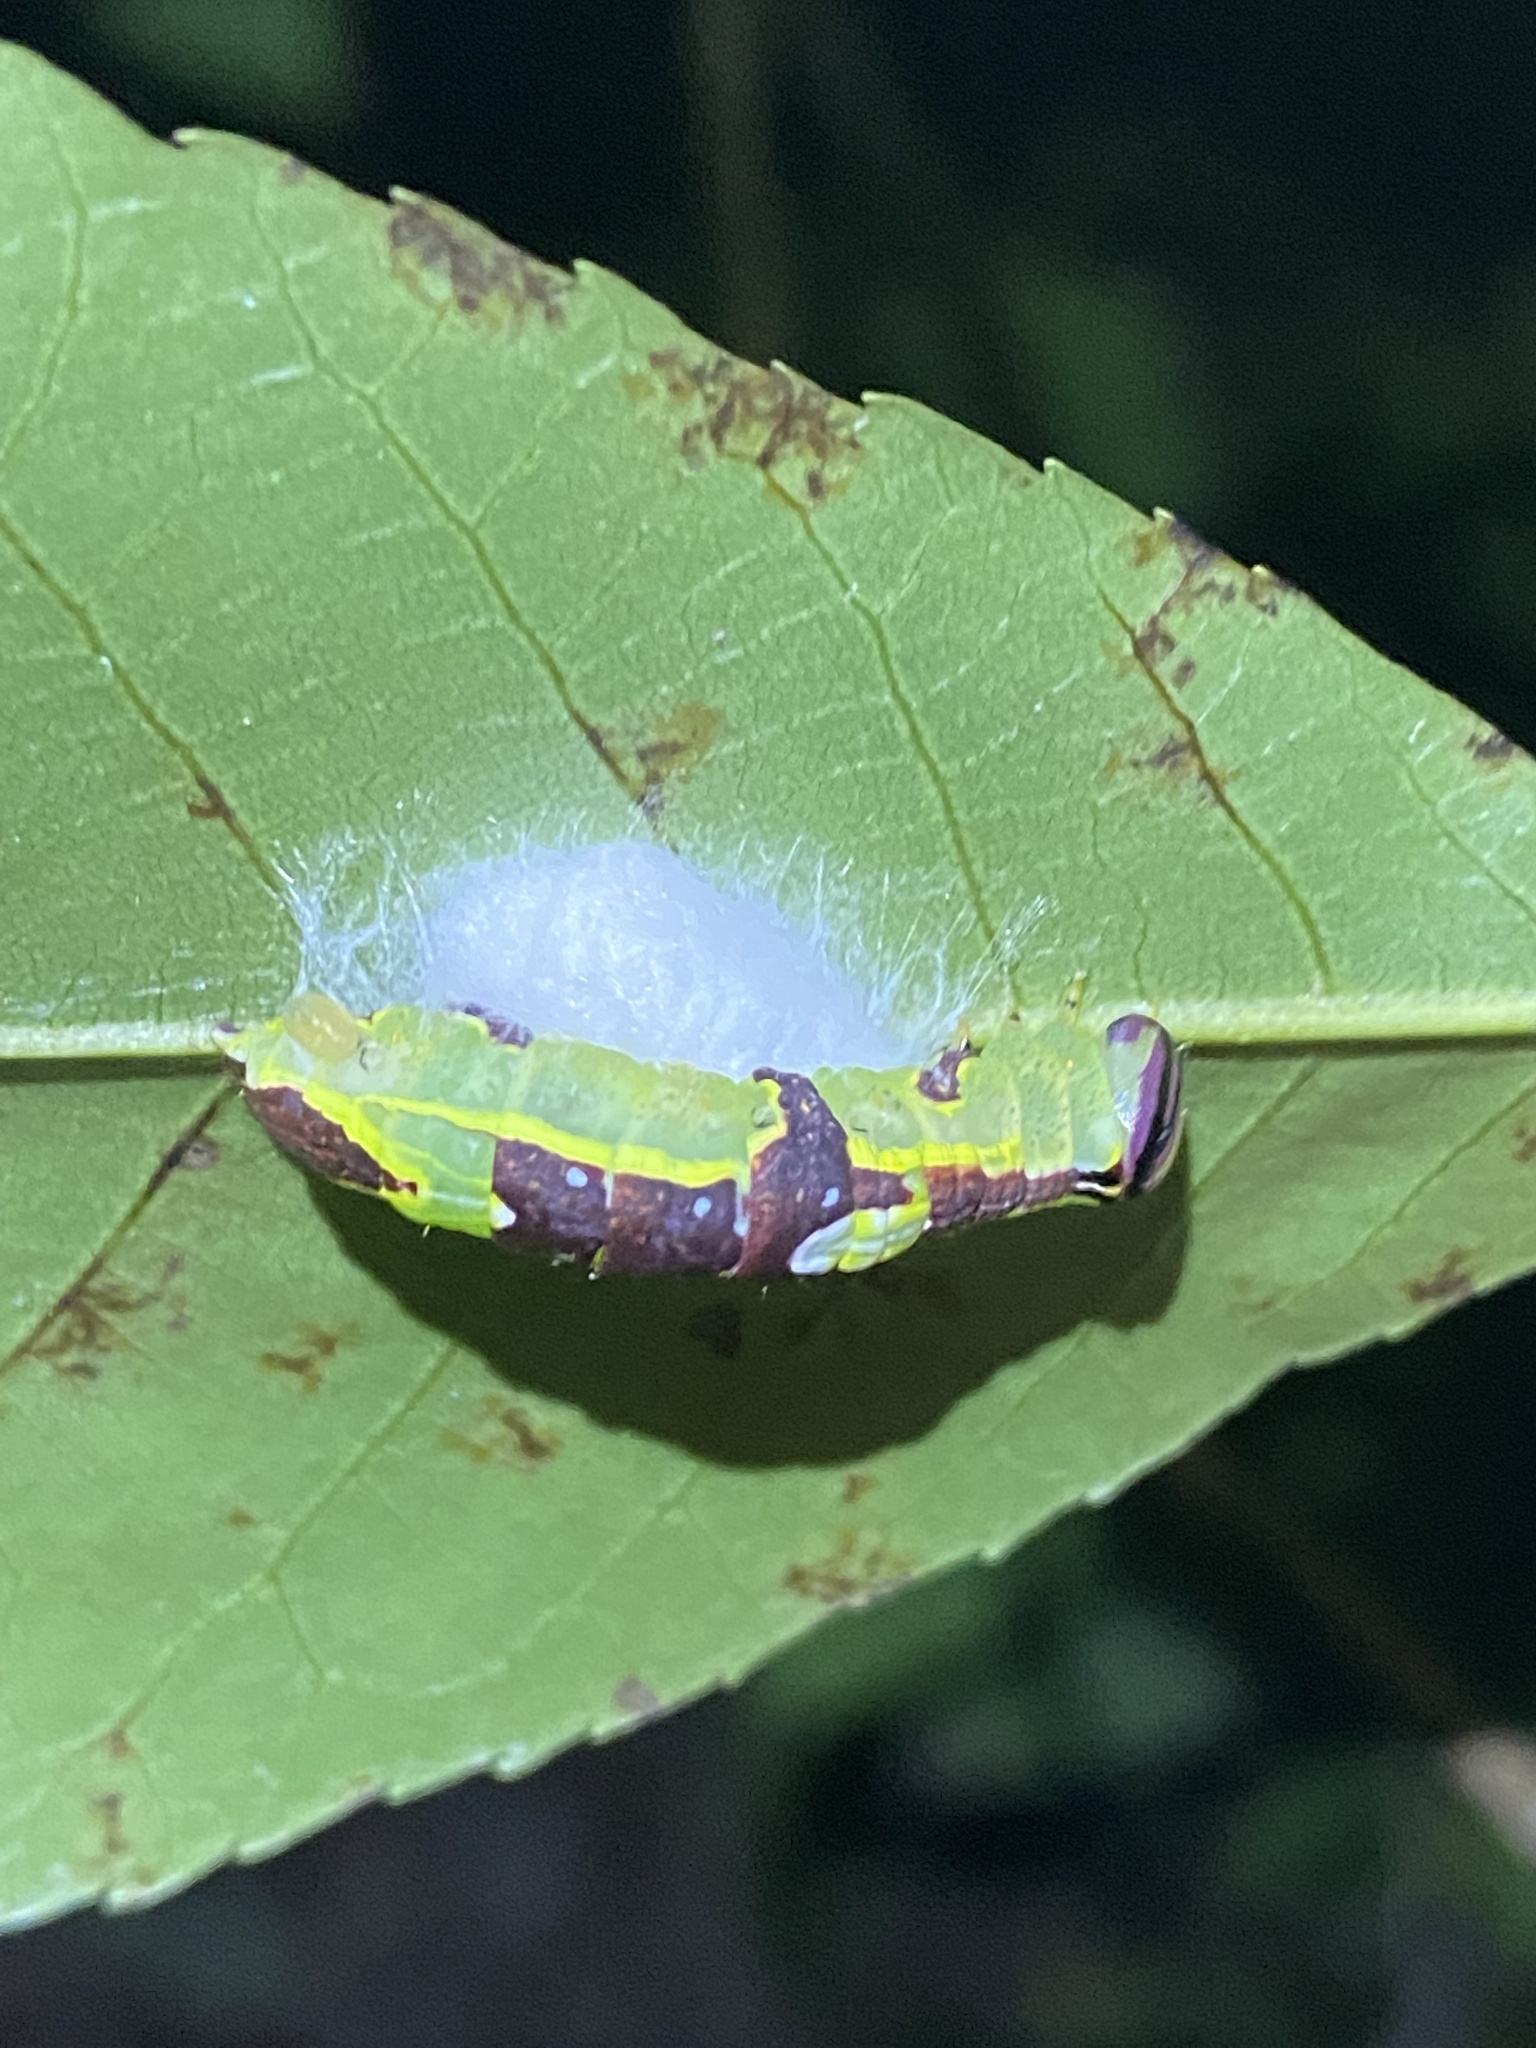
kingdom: Animalia
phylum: Arthropoda
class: Insecta
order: Lepidoptera
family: Notodontidae
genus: Disphragis
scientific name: Disphragis Cecrita guttivitta
